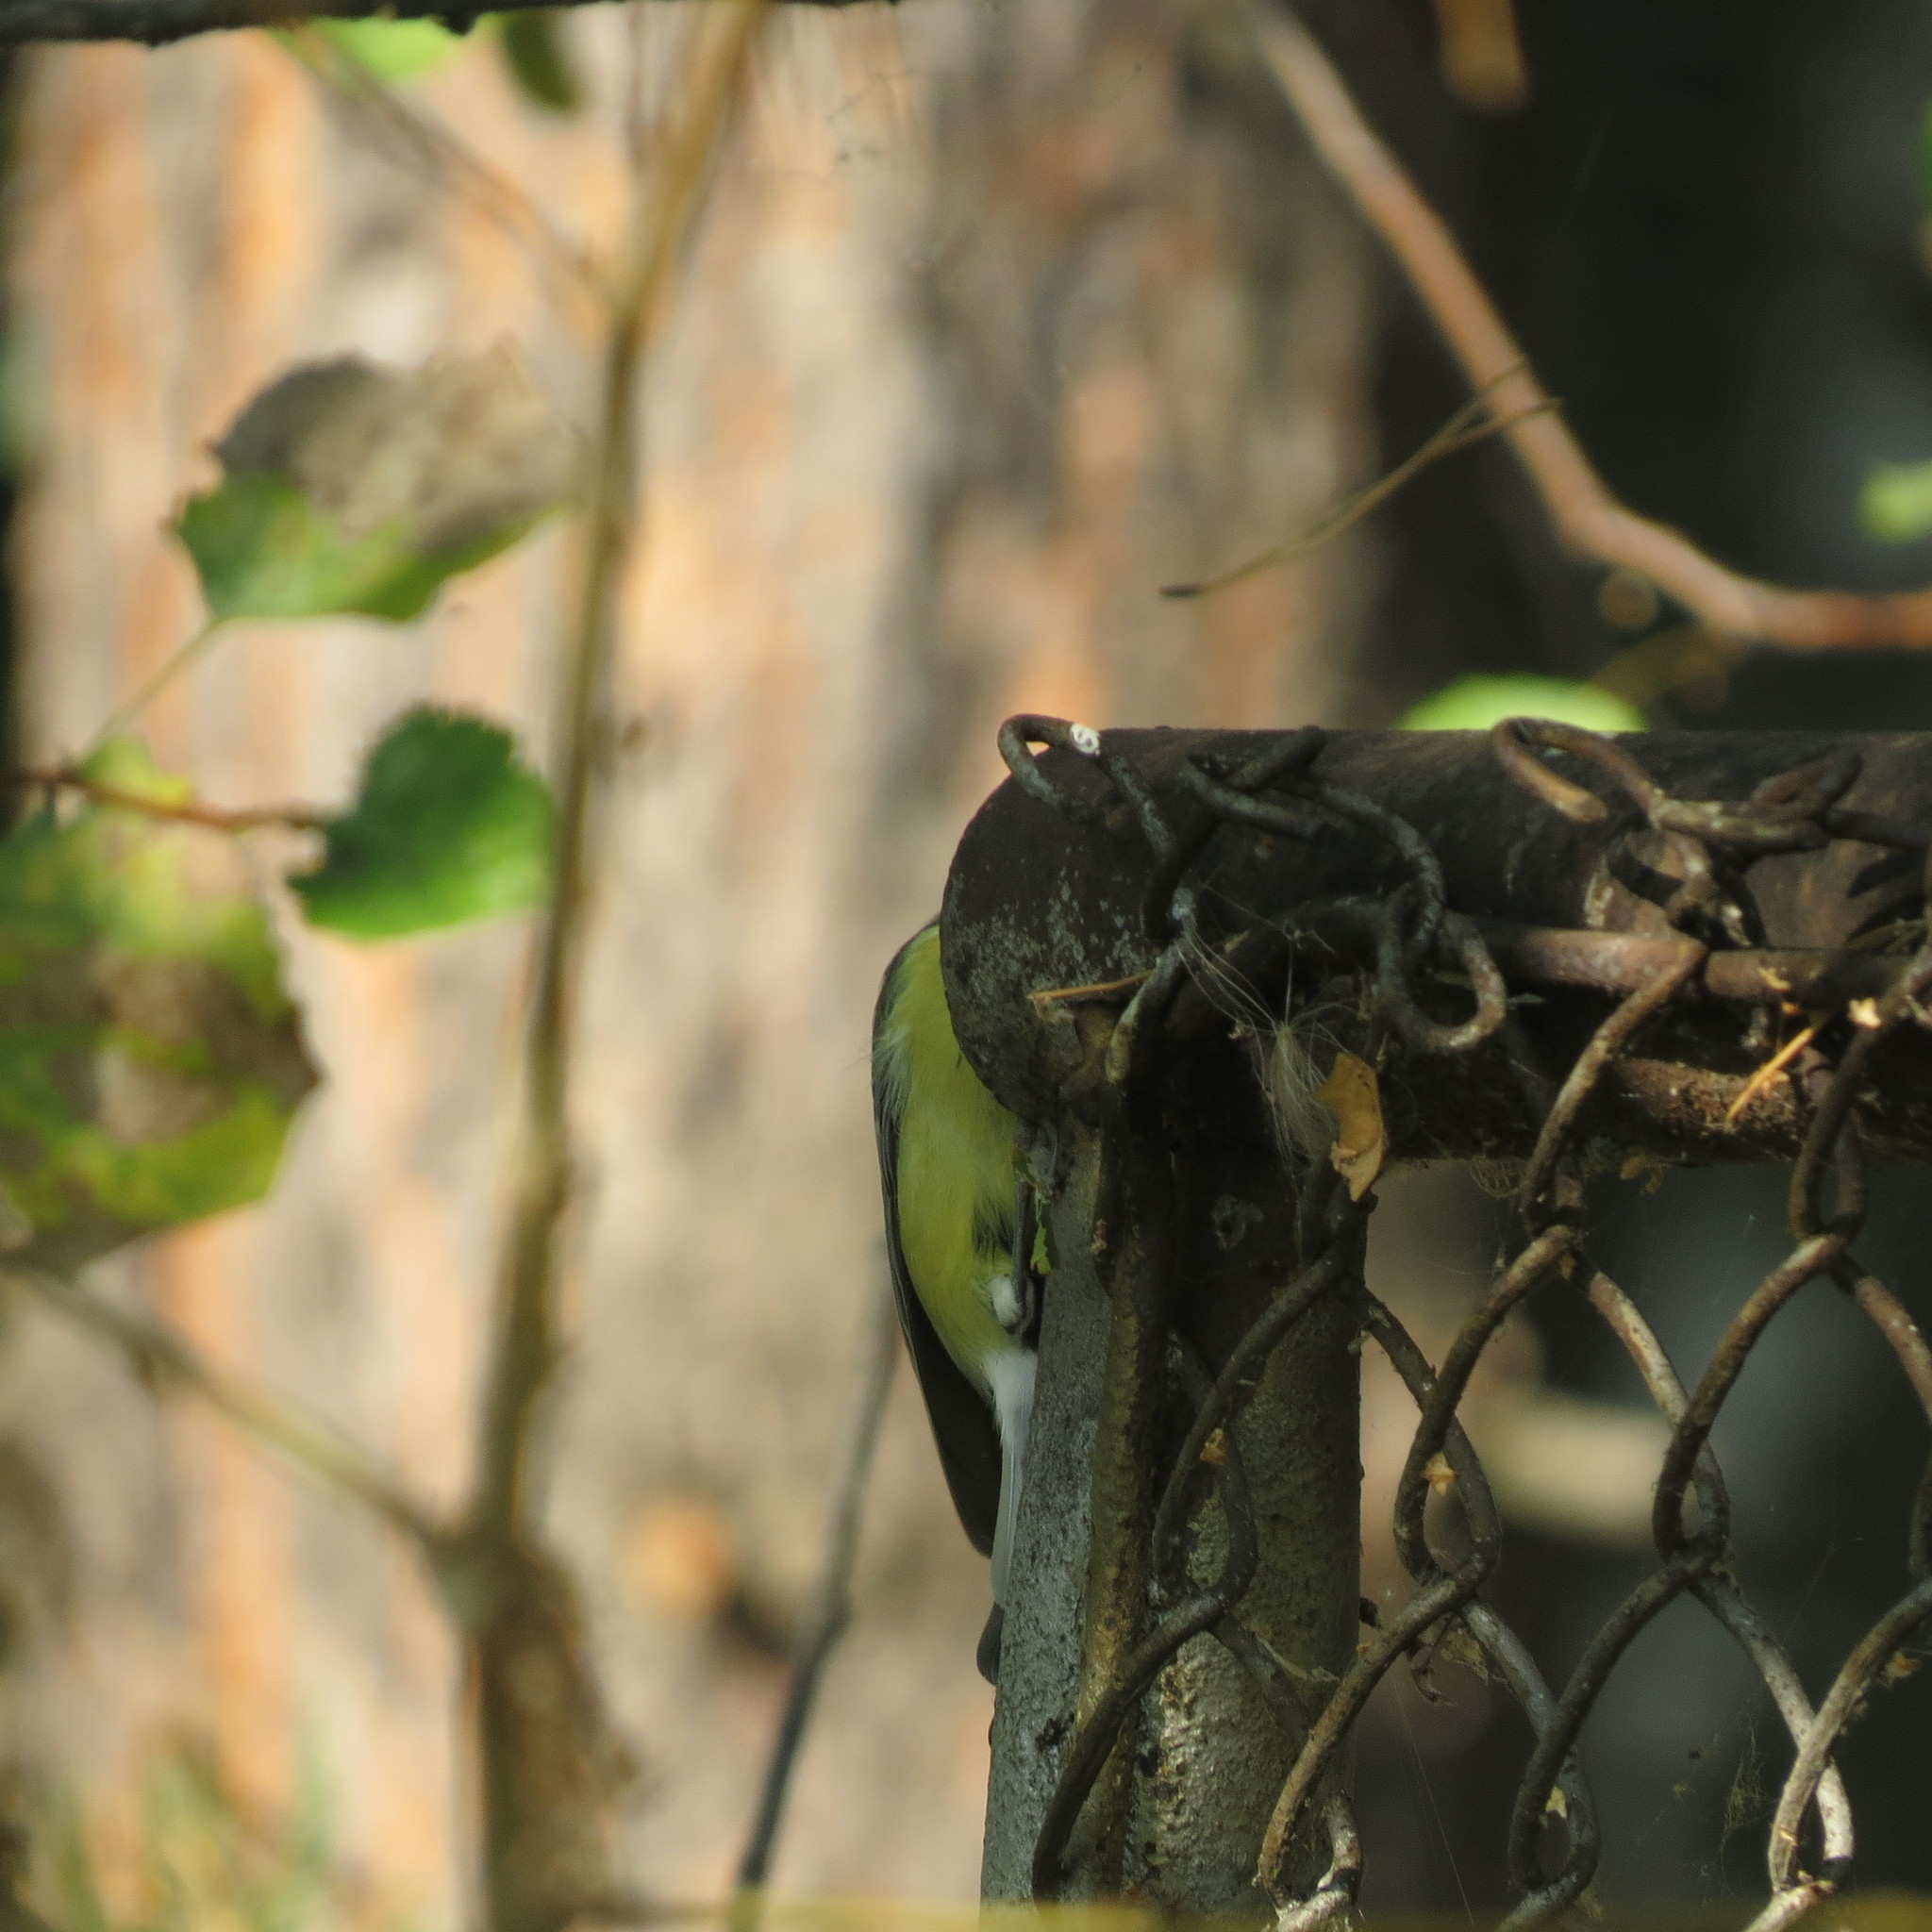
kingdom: Animalia
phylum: Chordata
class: Aves
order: Passeriformes
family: Paridae
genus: Parus
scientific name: Parus major
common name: Great tit
